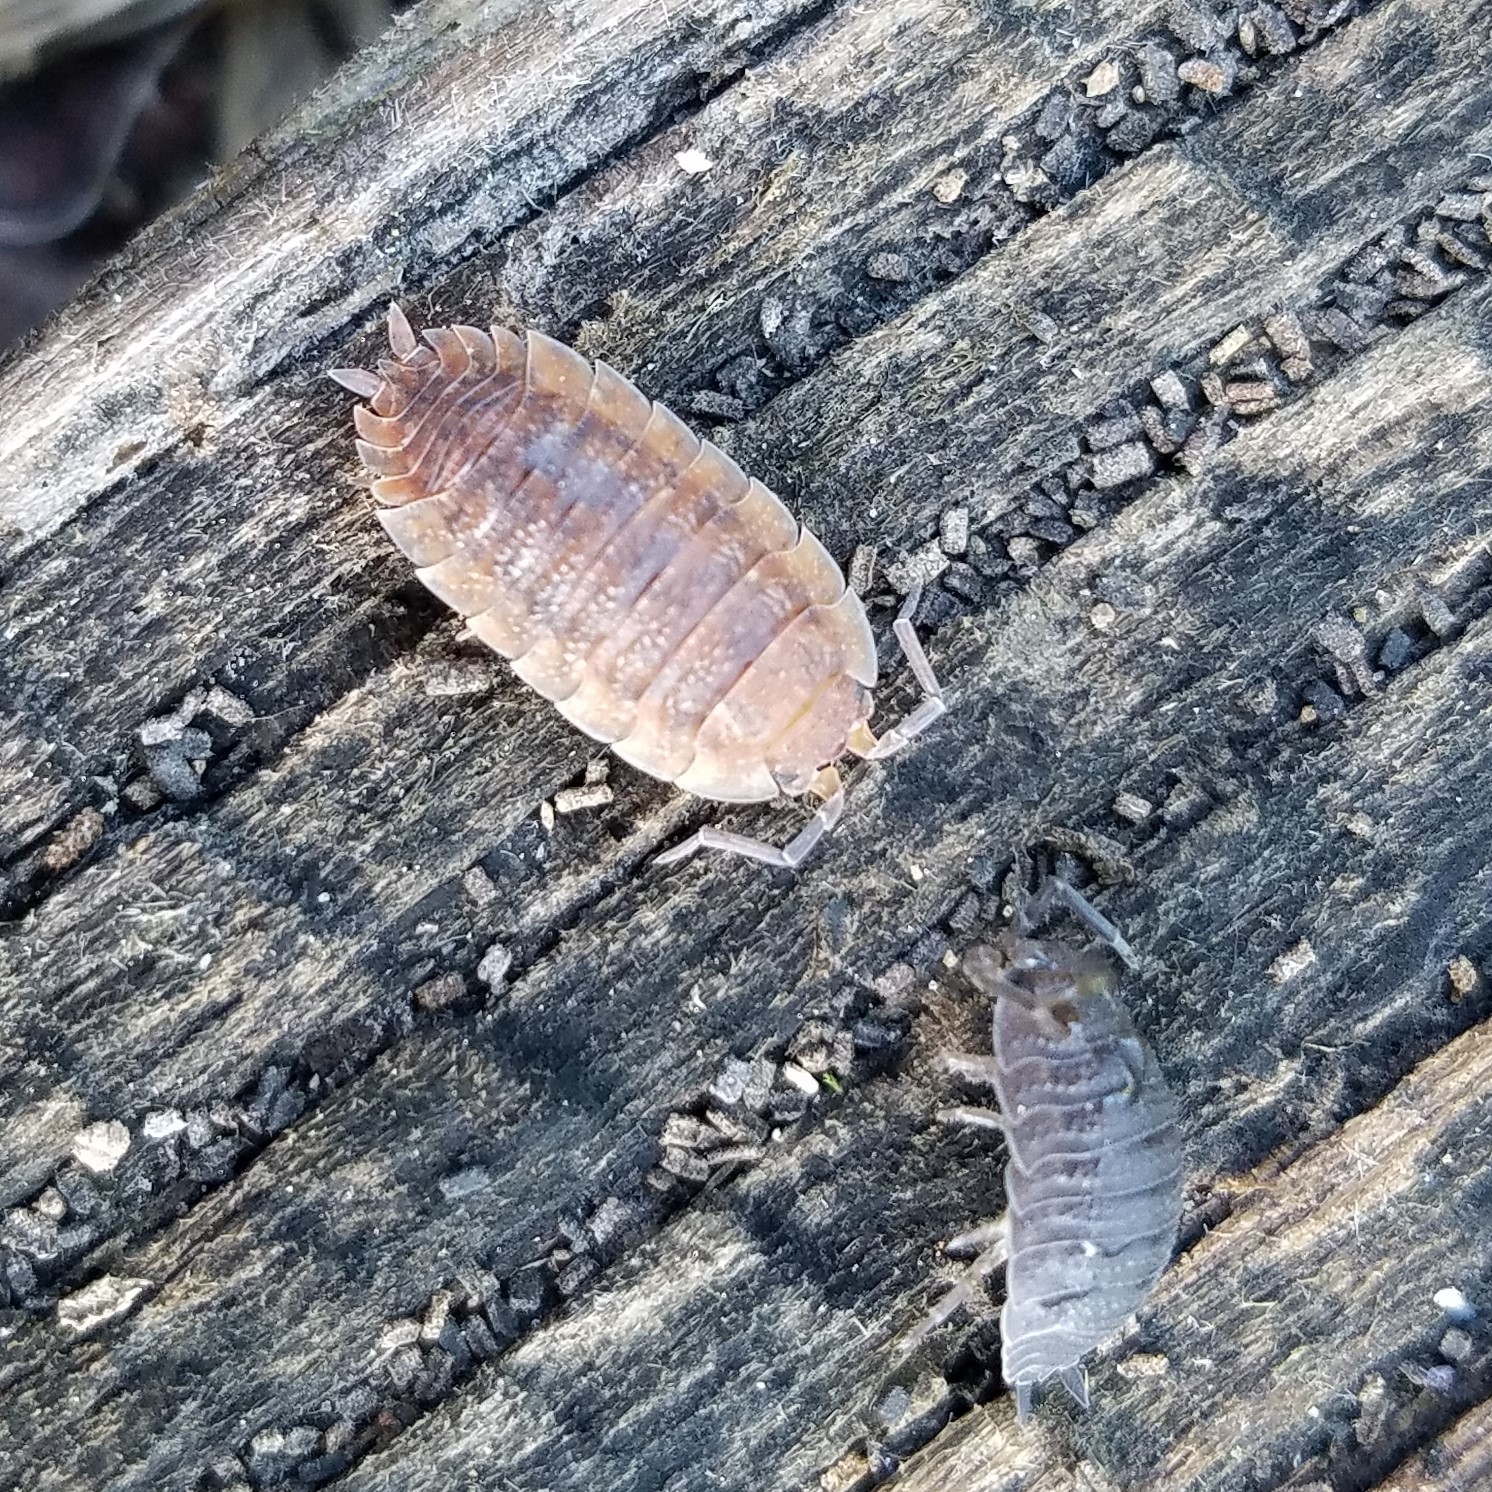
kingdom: Animalia
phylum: Arthropoda
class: Malacostraca
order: Isopoda
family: Porcellionidae
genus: Porcellio
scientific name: Porcellio scaber
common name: Common rough woodlouse
